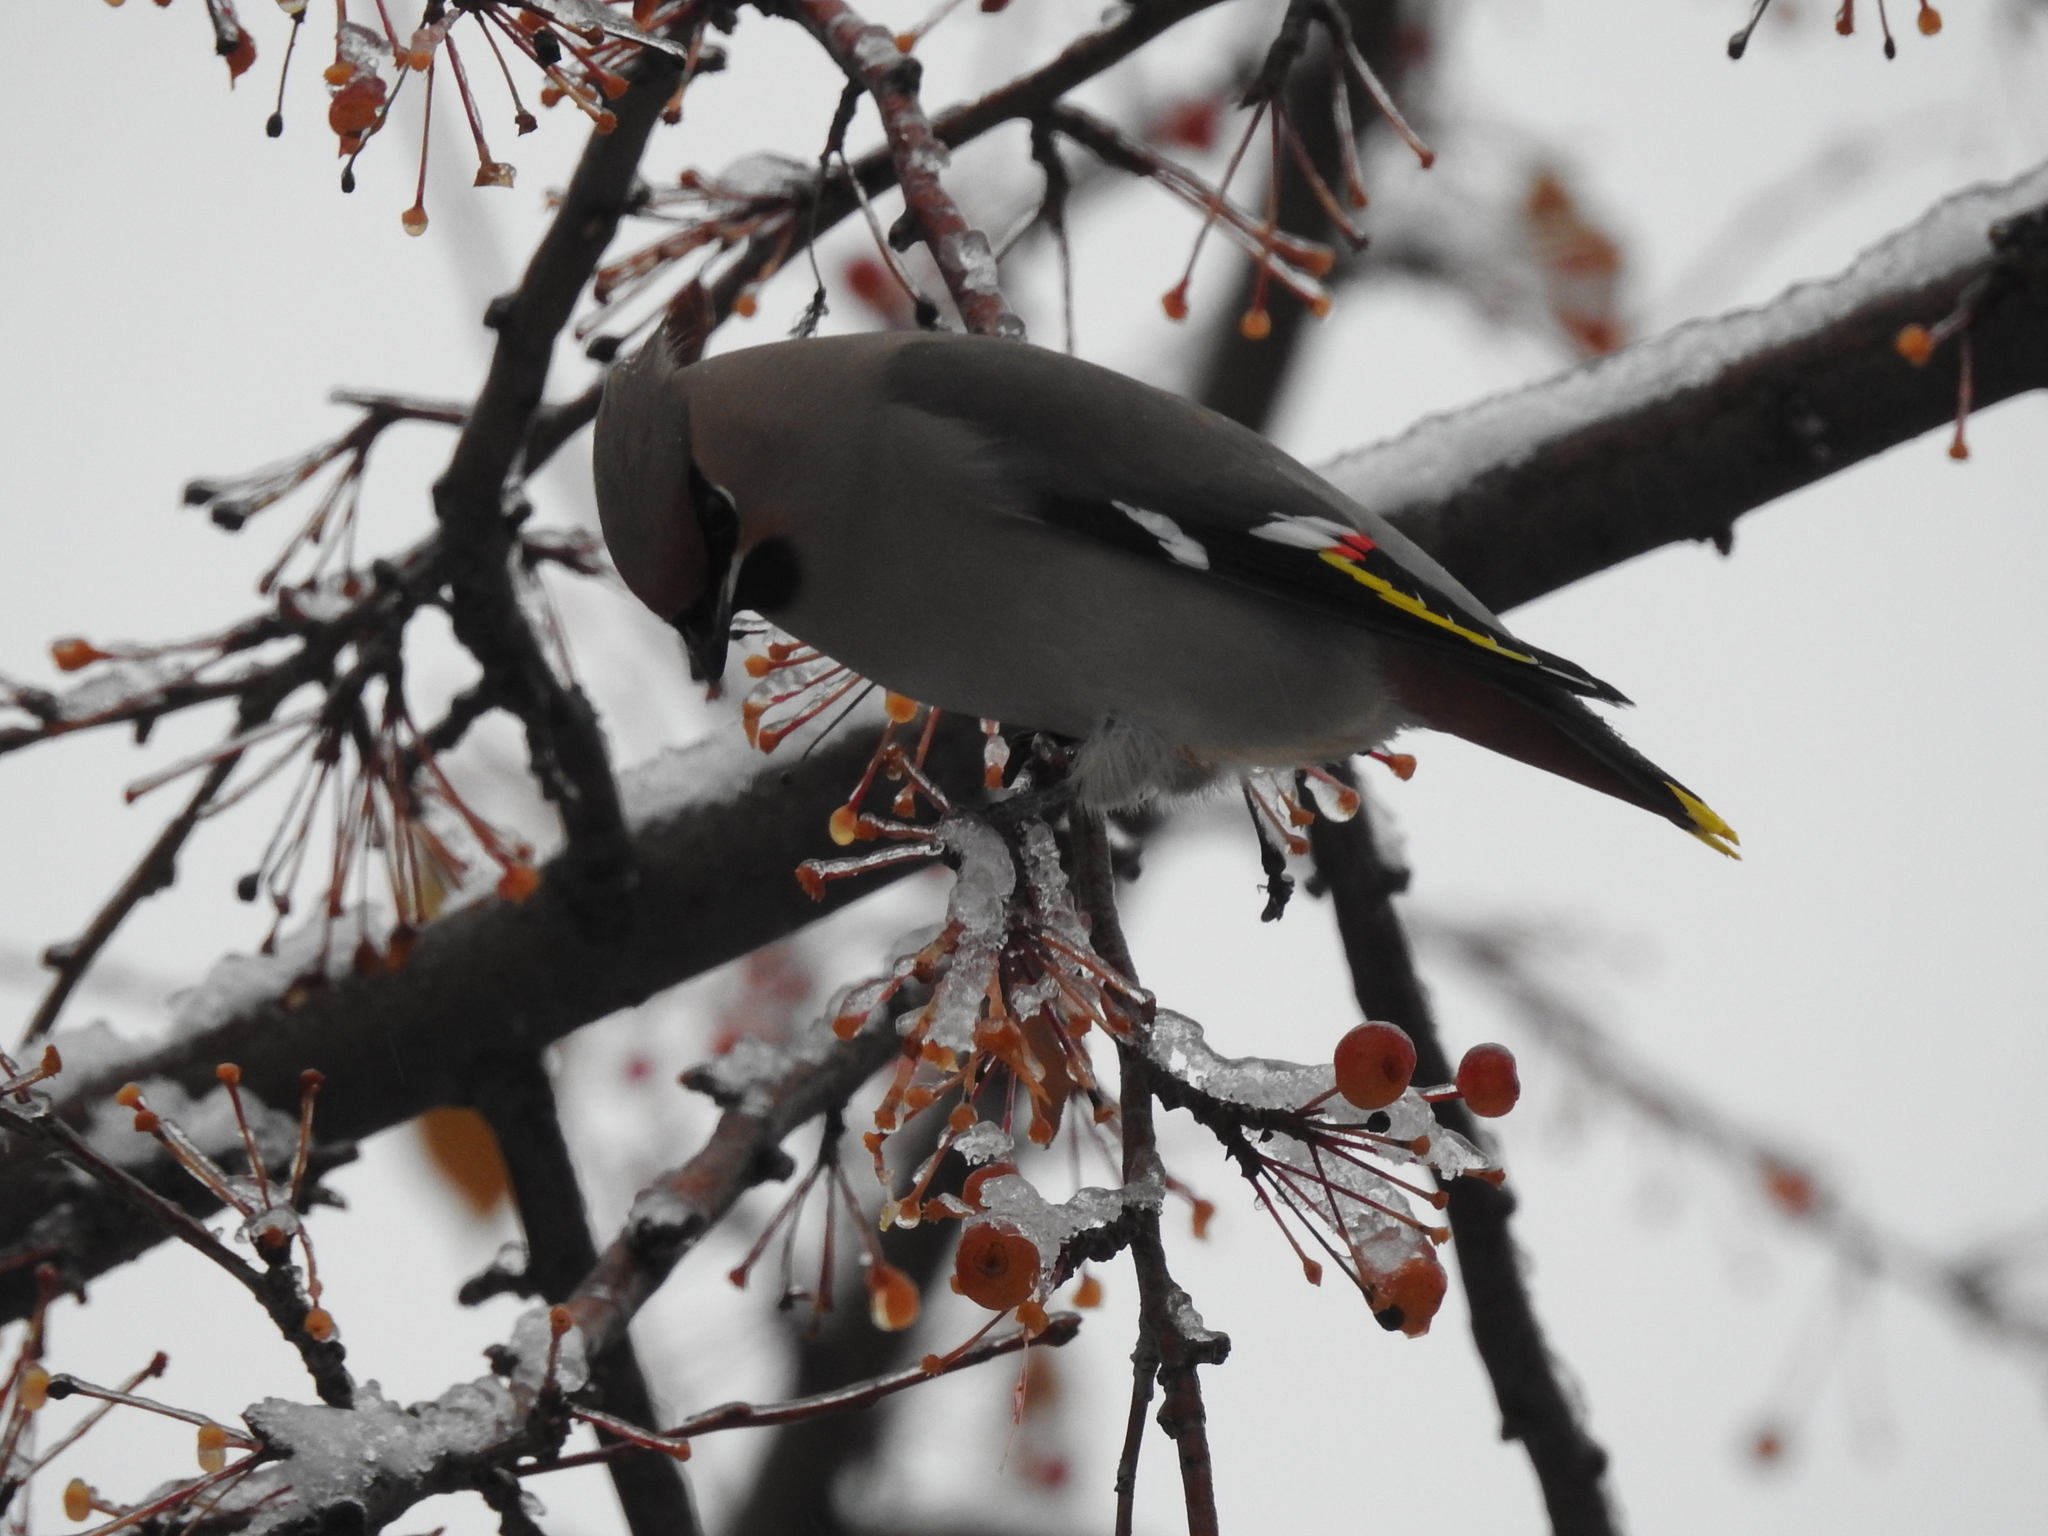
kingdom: Animalia
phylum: Chordata
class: Aves
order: Passeriformes
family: Bombycillidae
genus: Bombycilla
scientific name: Bombycilla garrulus
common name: Bohemian waxwing
